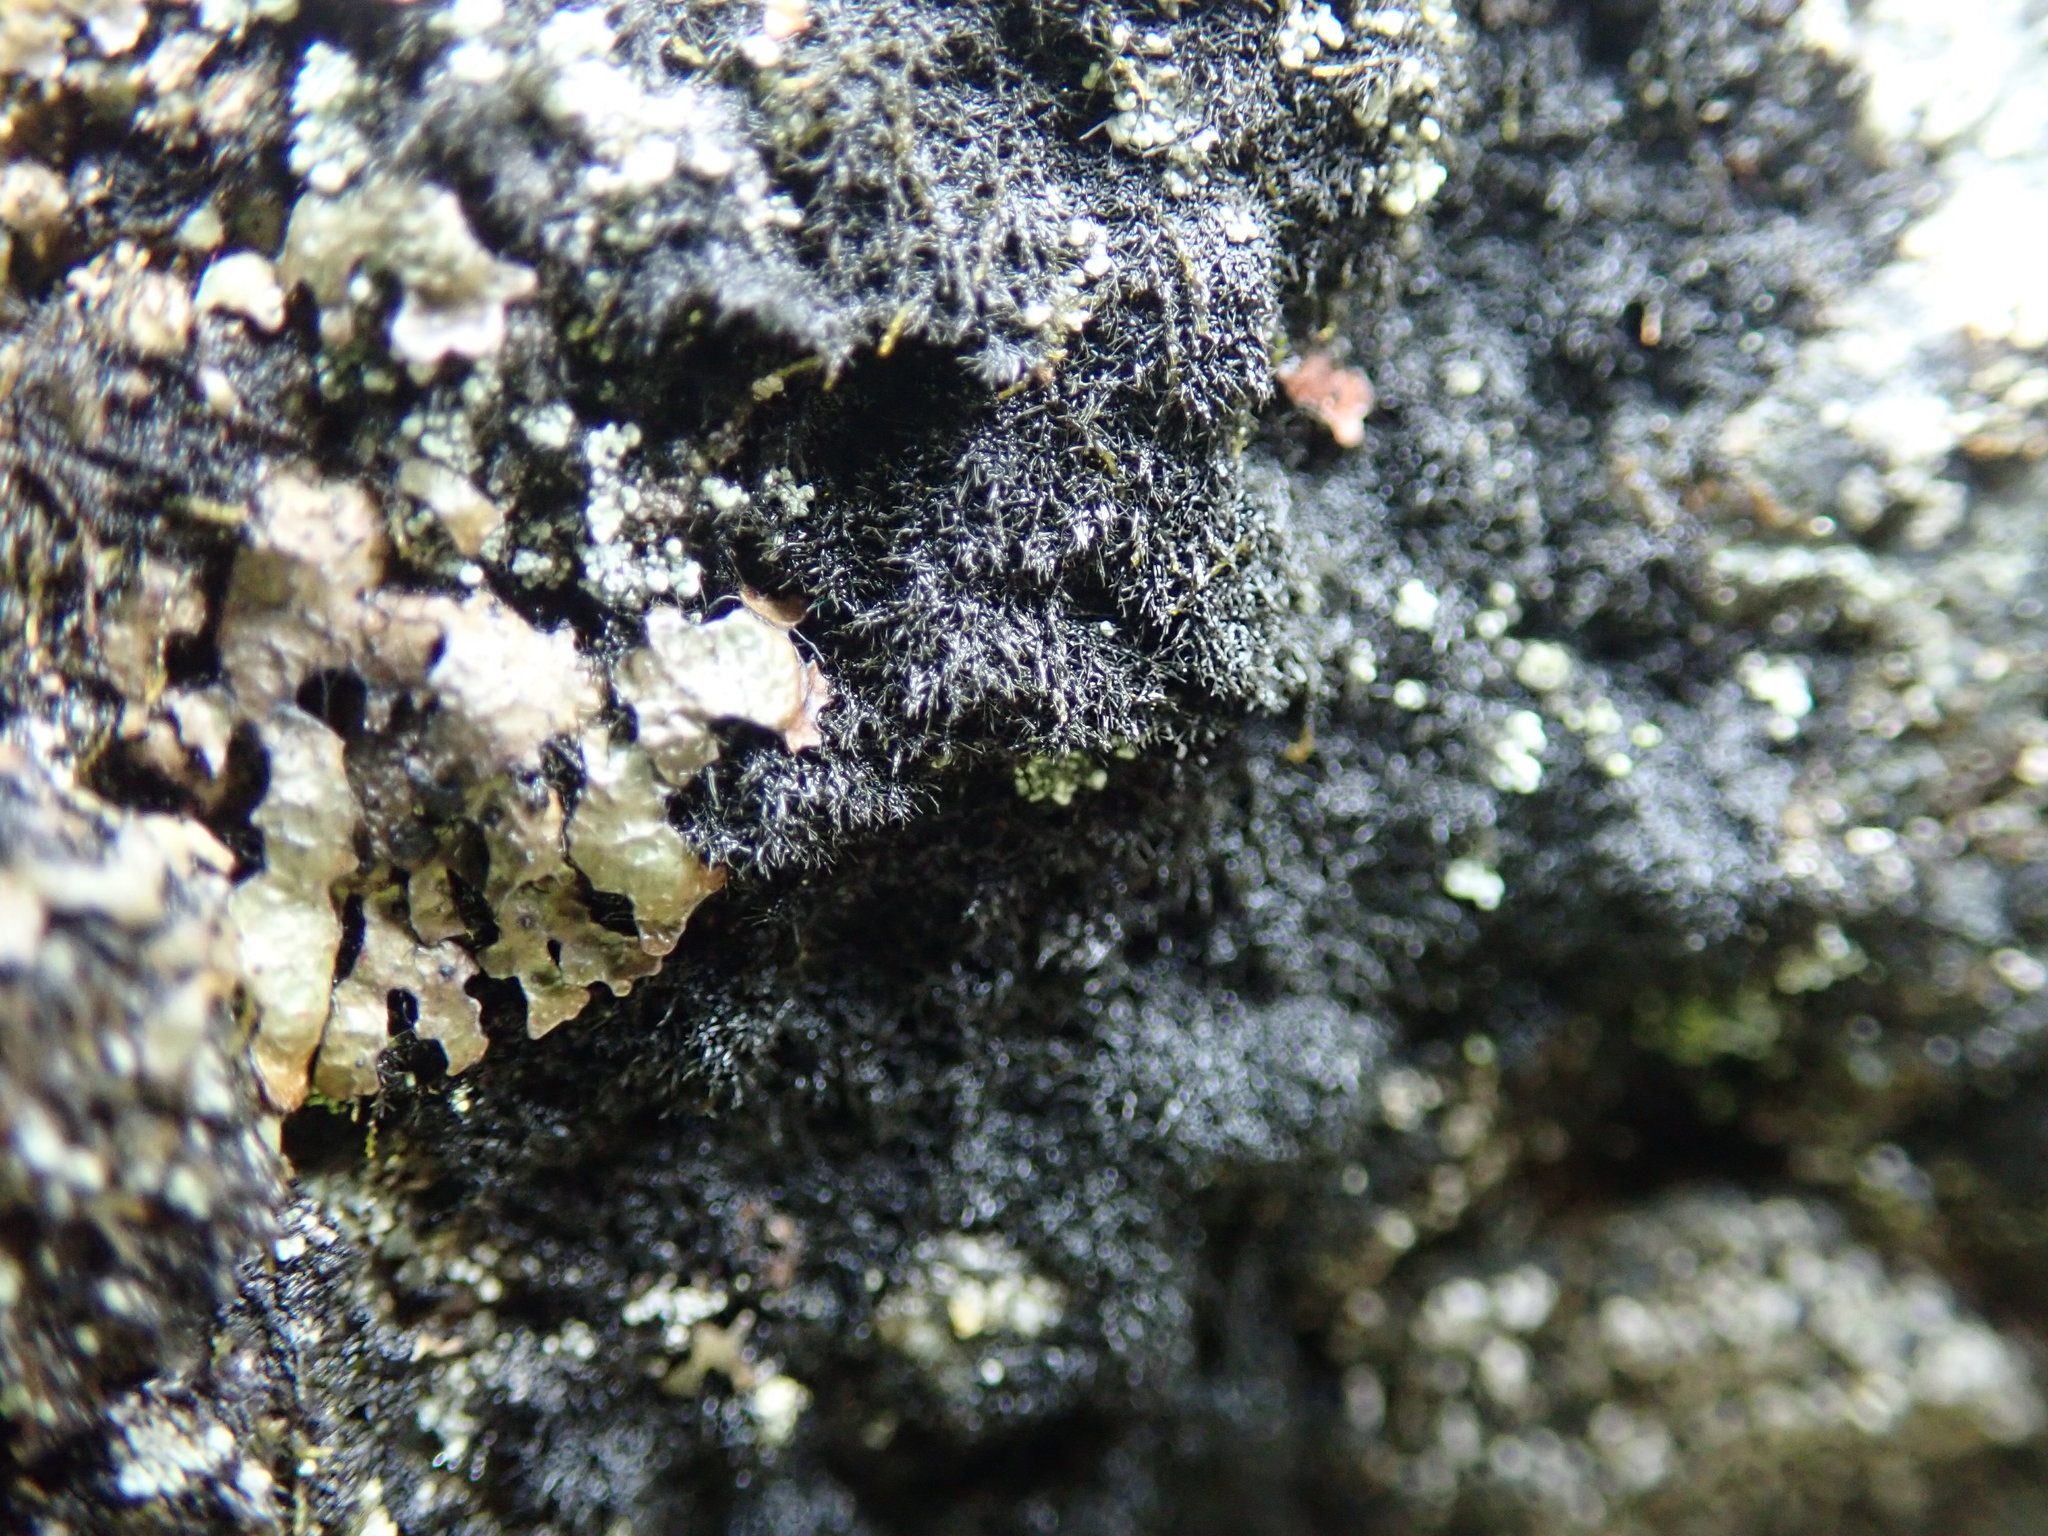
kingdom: Fungi
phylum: Ascomycota
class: Lecanoromycetes
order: Lecanorales
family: Parmeliaceae
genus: Pseudephebe
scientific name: Pseudephebe pubescens
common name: Fine rockwool lichen
